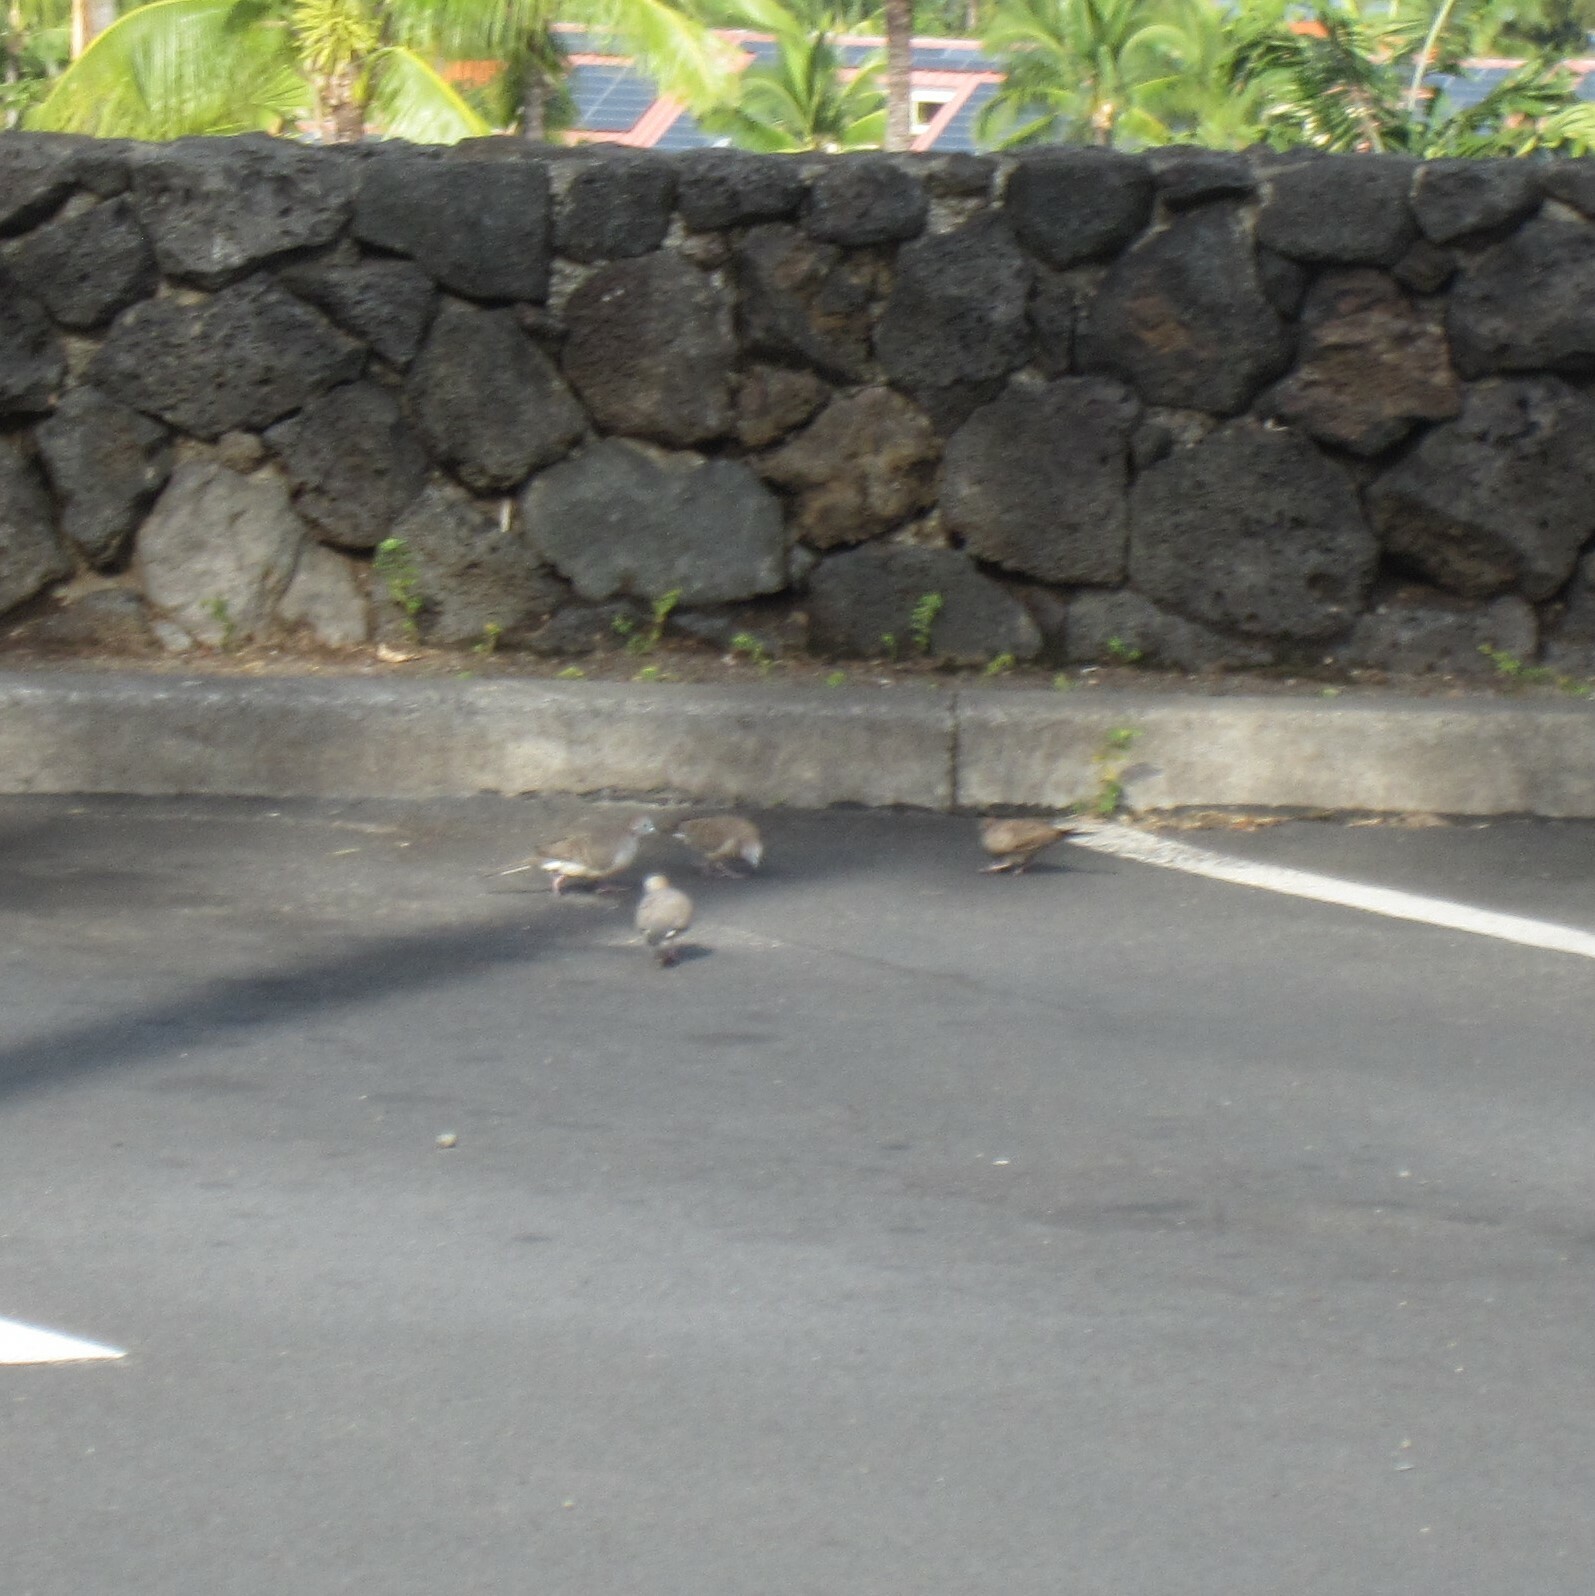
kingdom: Animalia
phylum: Chordata
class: Aves
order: Columbiformes
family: Columbidae
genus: Geopelia
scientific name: Geopelia striata
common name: Zebra dove
